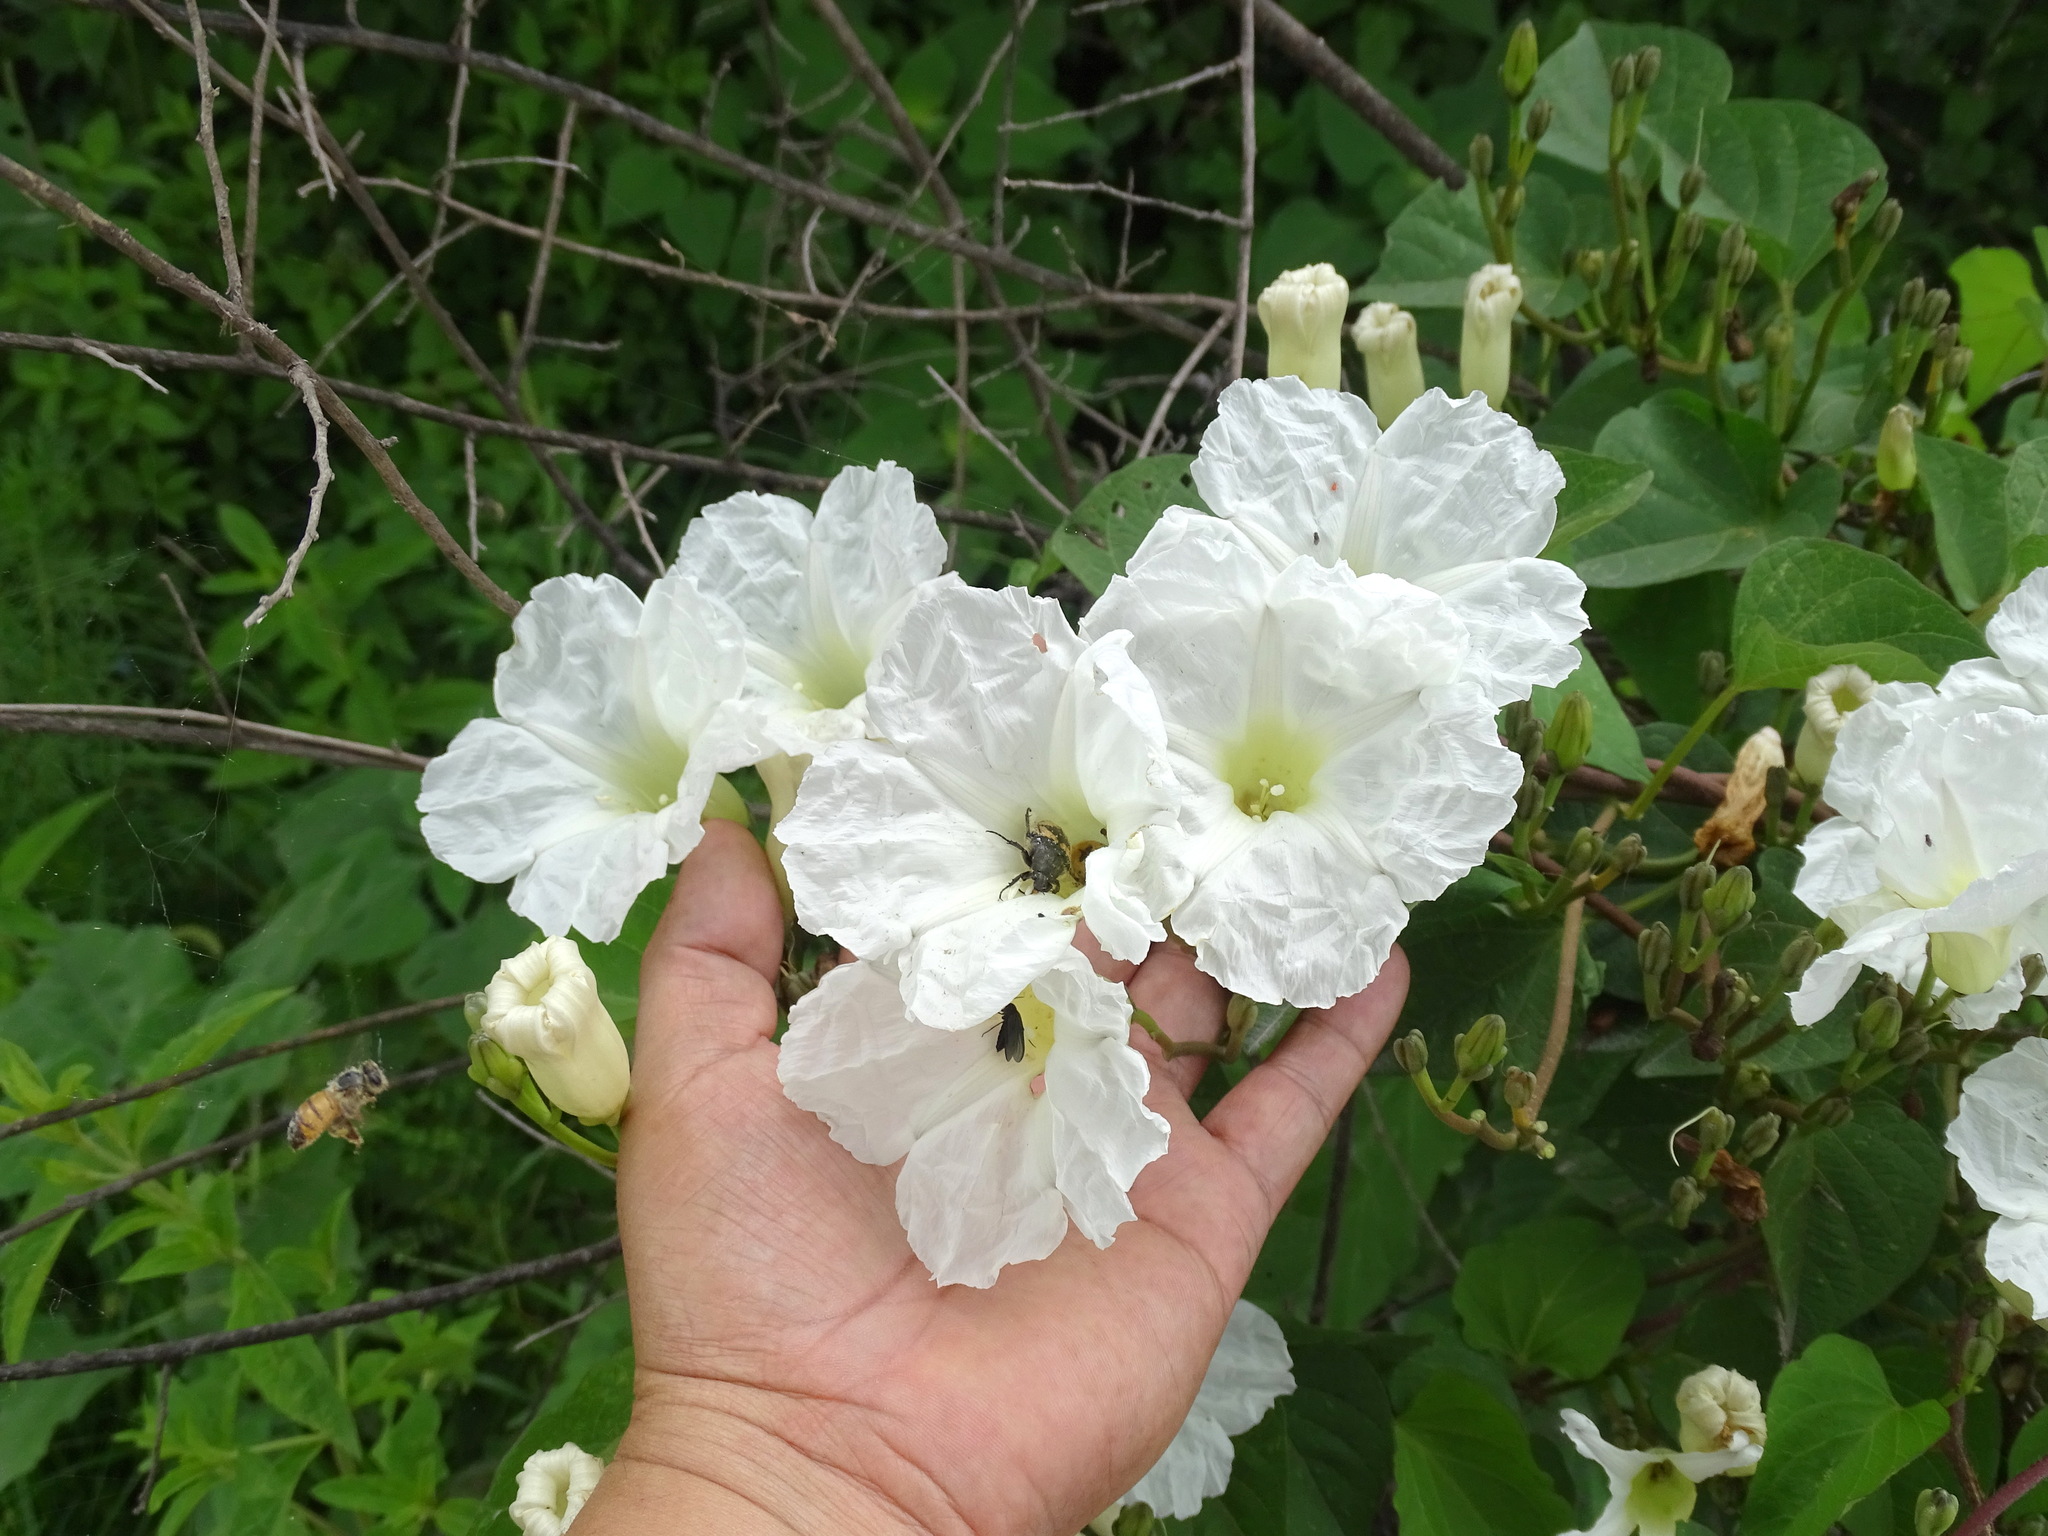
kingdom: Plantae
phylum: Tracheophyta
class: Magnoliopsida
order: Solanales
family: Convolvulaceae
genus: Ipomoea
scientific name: Ipomoea proxima
